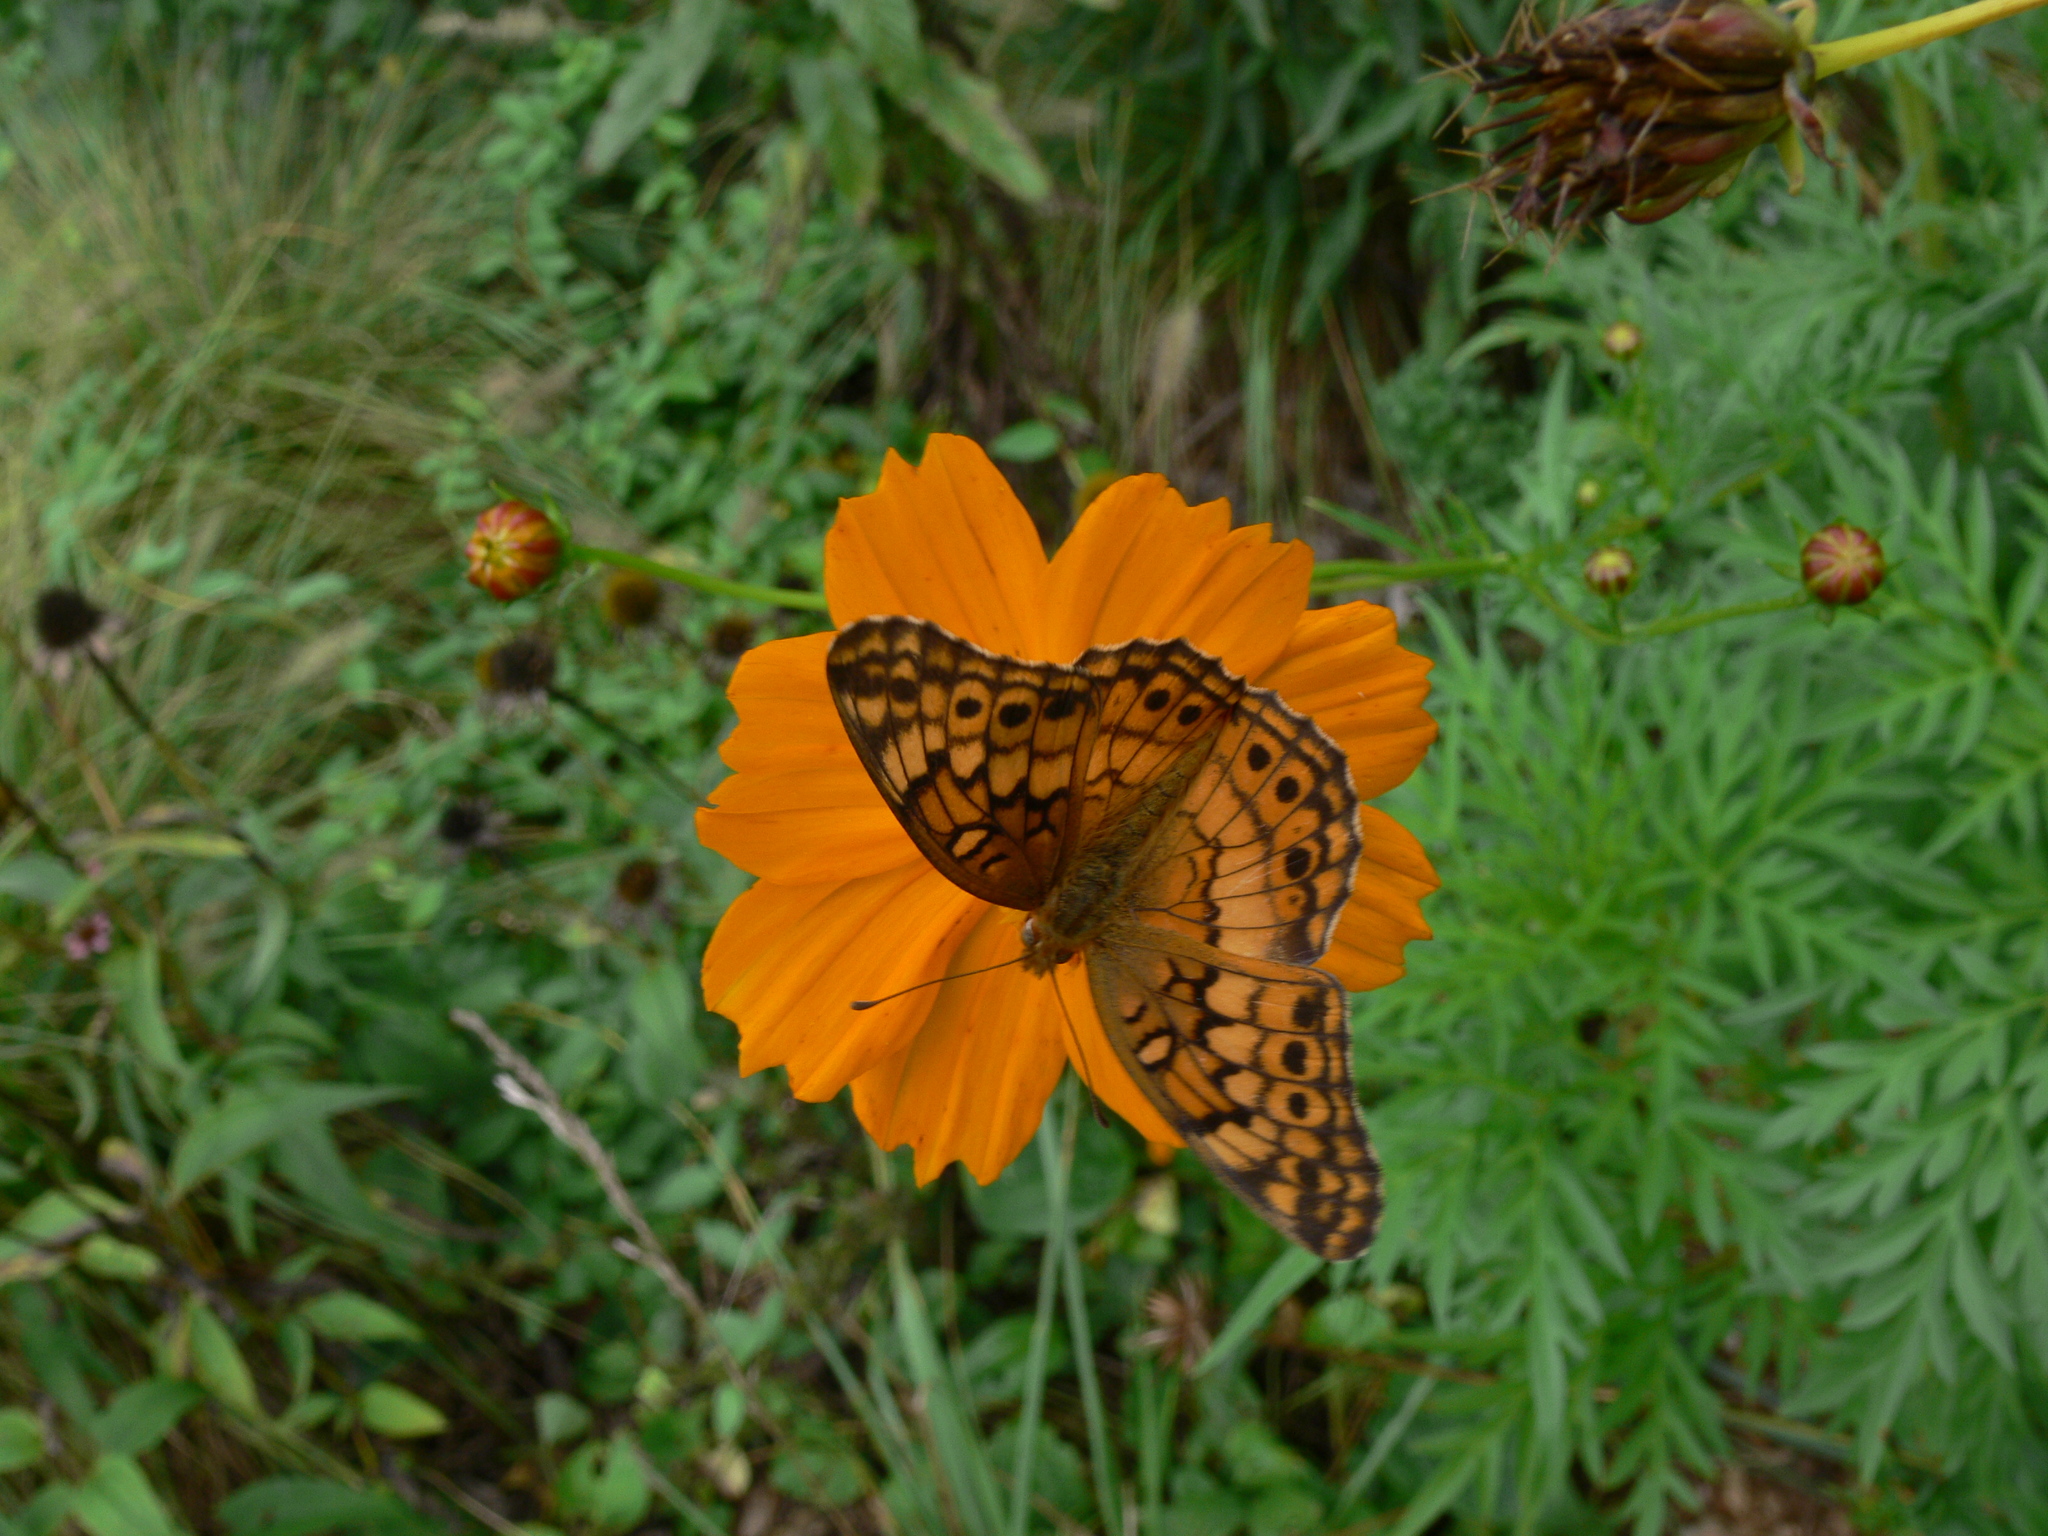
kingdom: Animalia
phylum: Arthropoda
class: Insecta
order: Lepidoptera
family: Nymphalidae
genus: Euptoieta
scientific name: Euptoieta claudia
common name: Variegated fritillary
